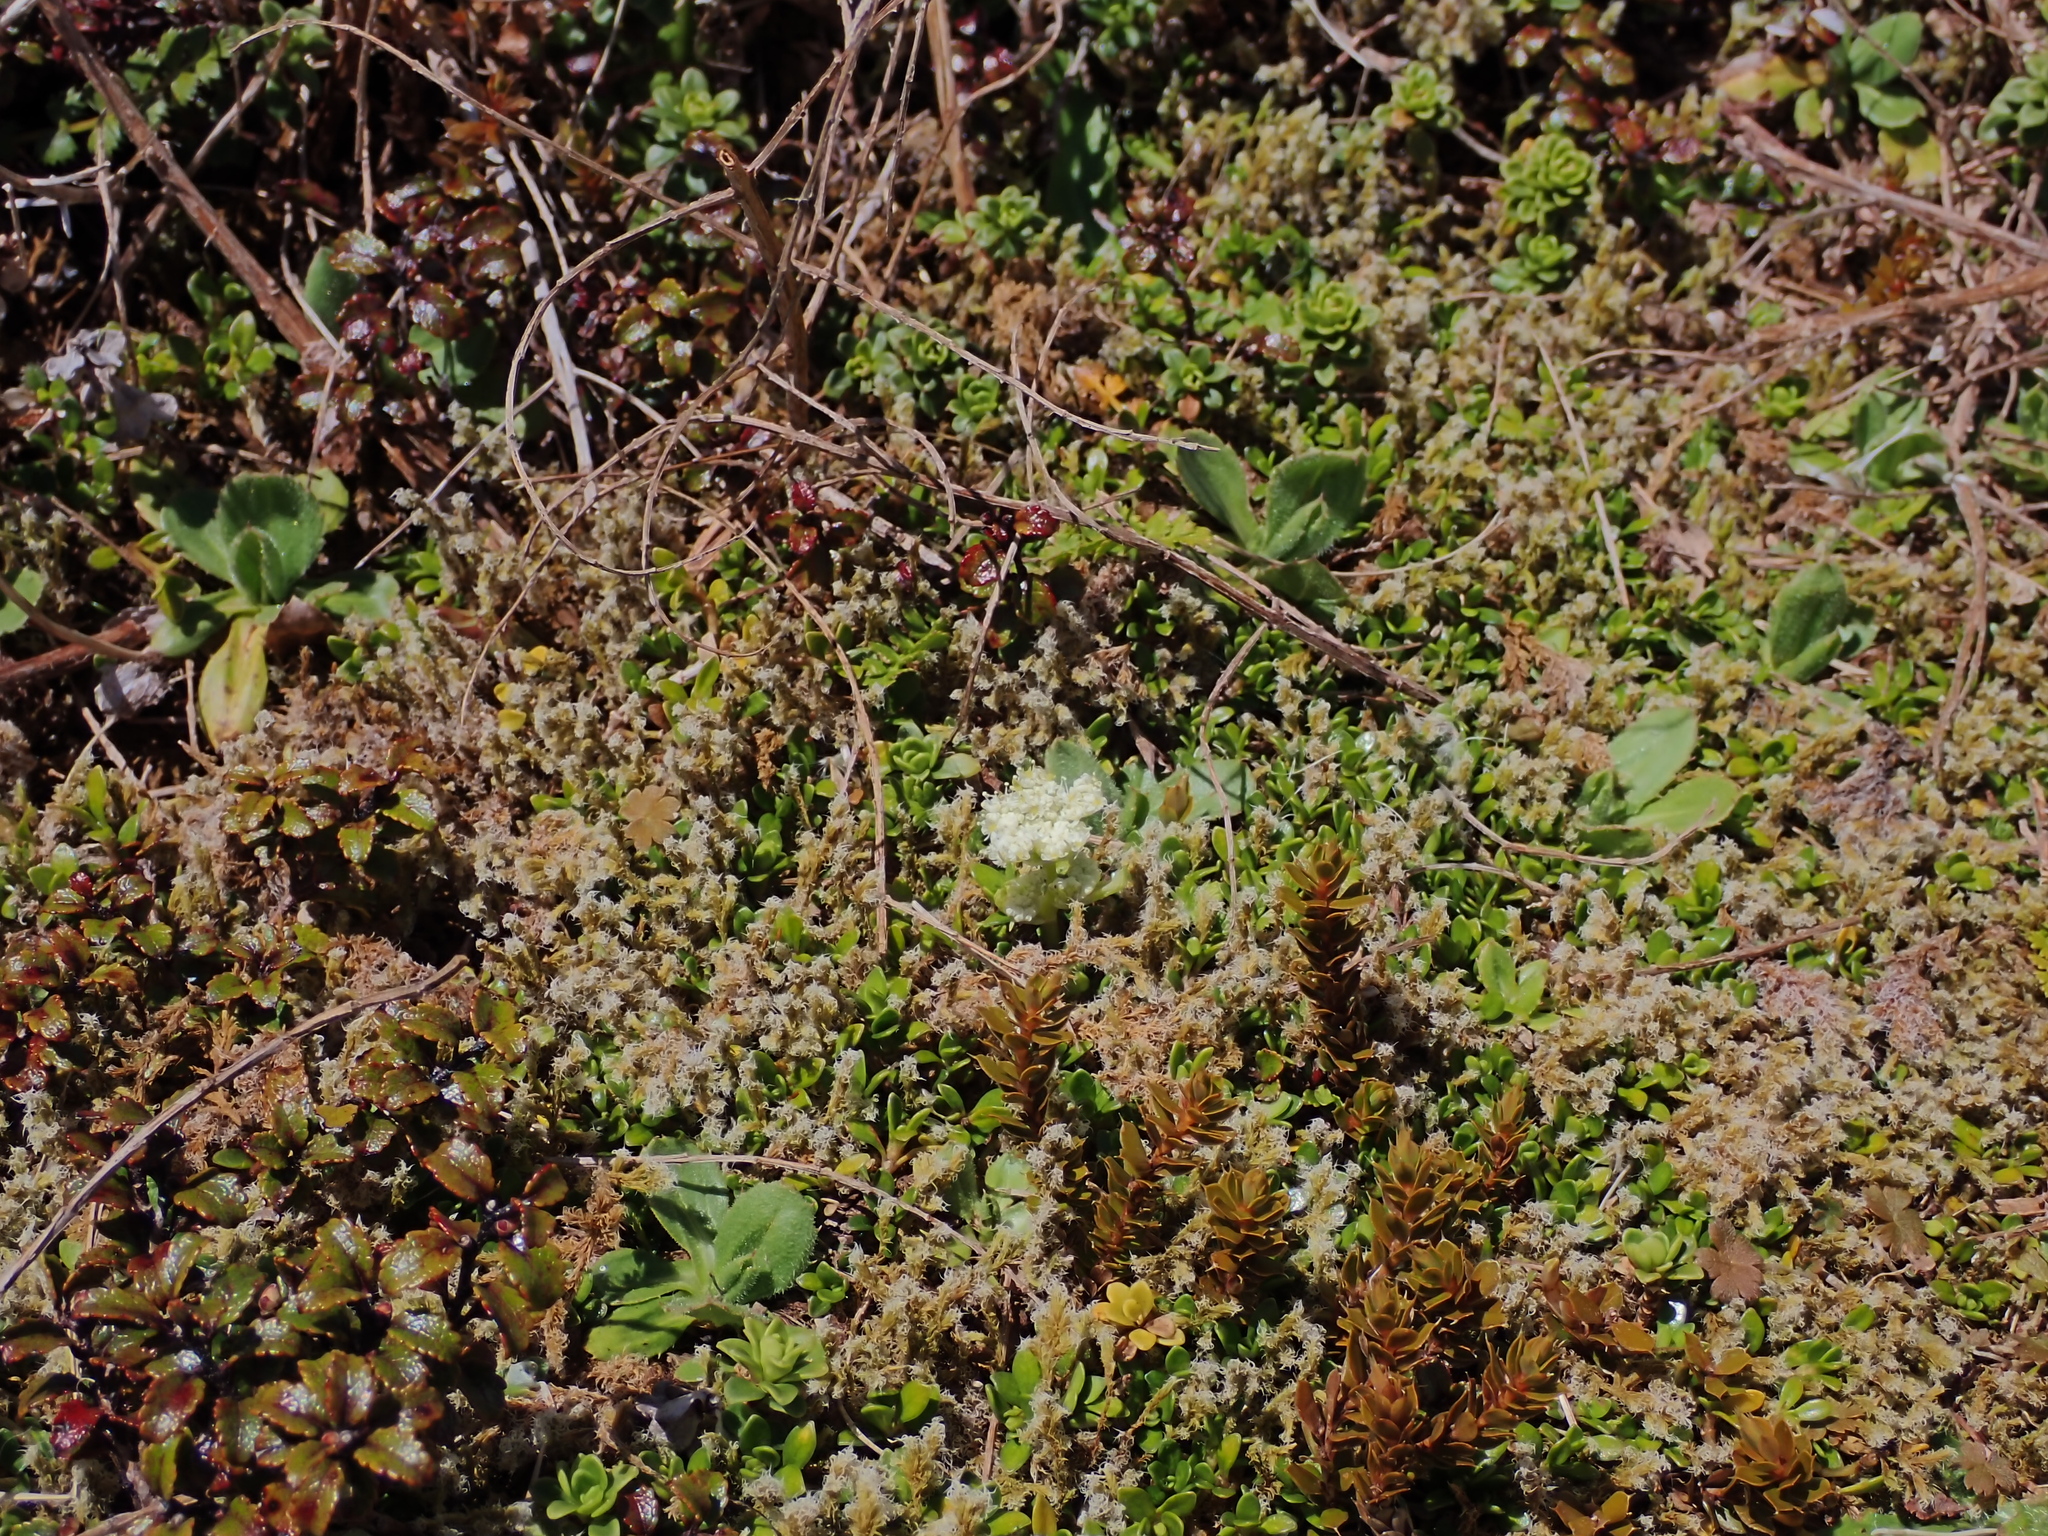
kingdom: Plantae
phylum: Tracheophyta
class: Magnoliopsida
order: Apiales
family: Apiaceae
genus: Anisotome
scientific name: Anisotome aromatica
